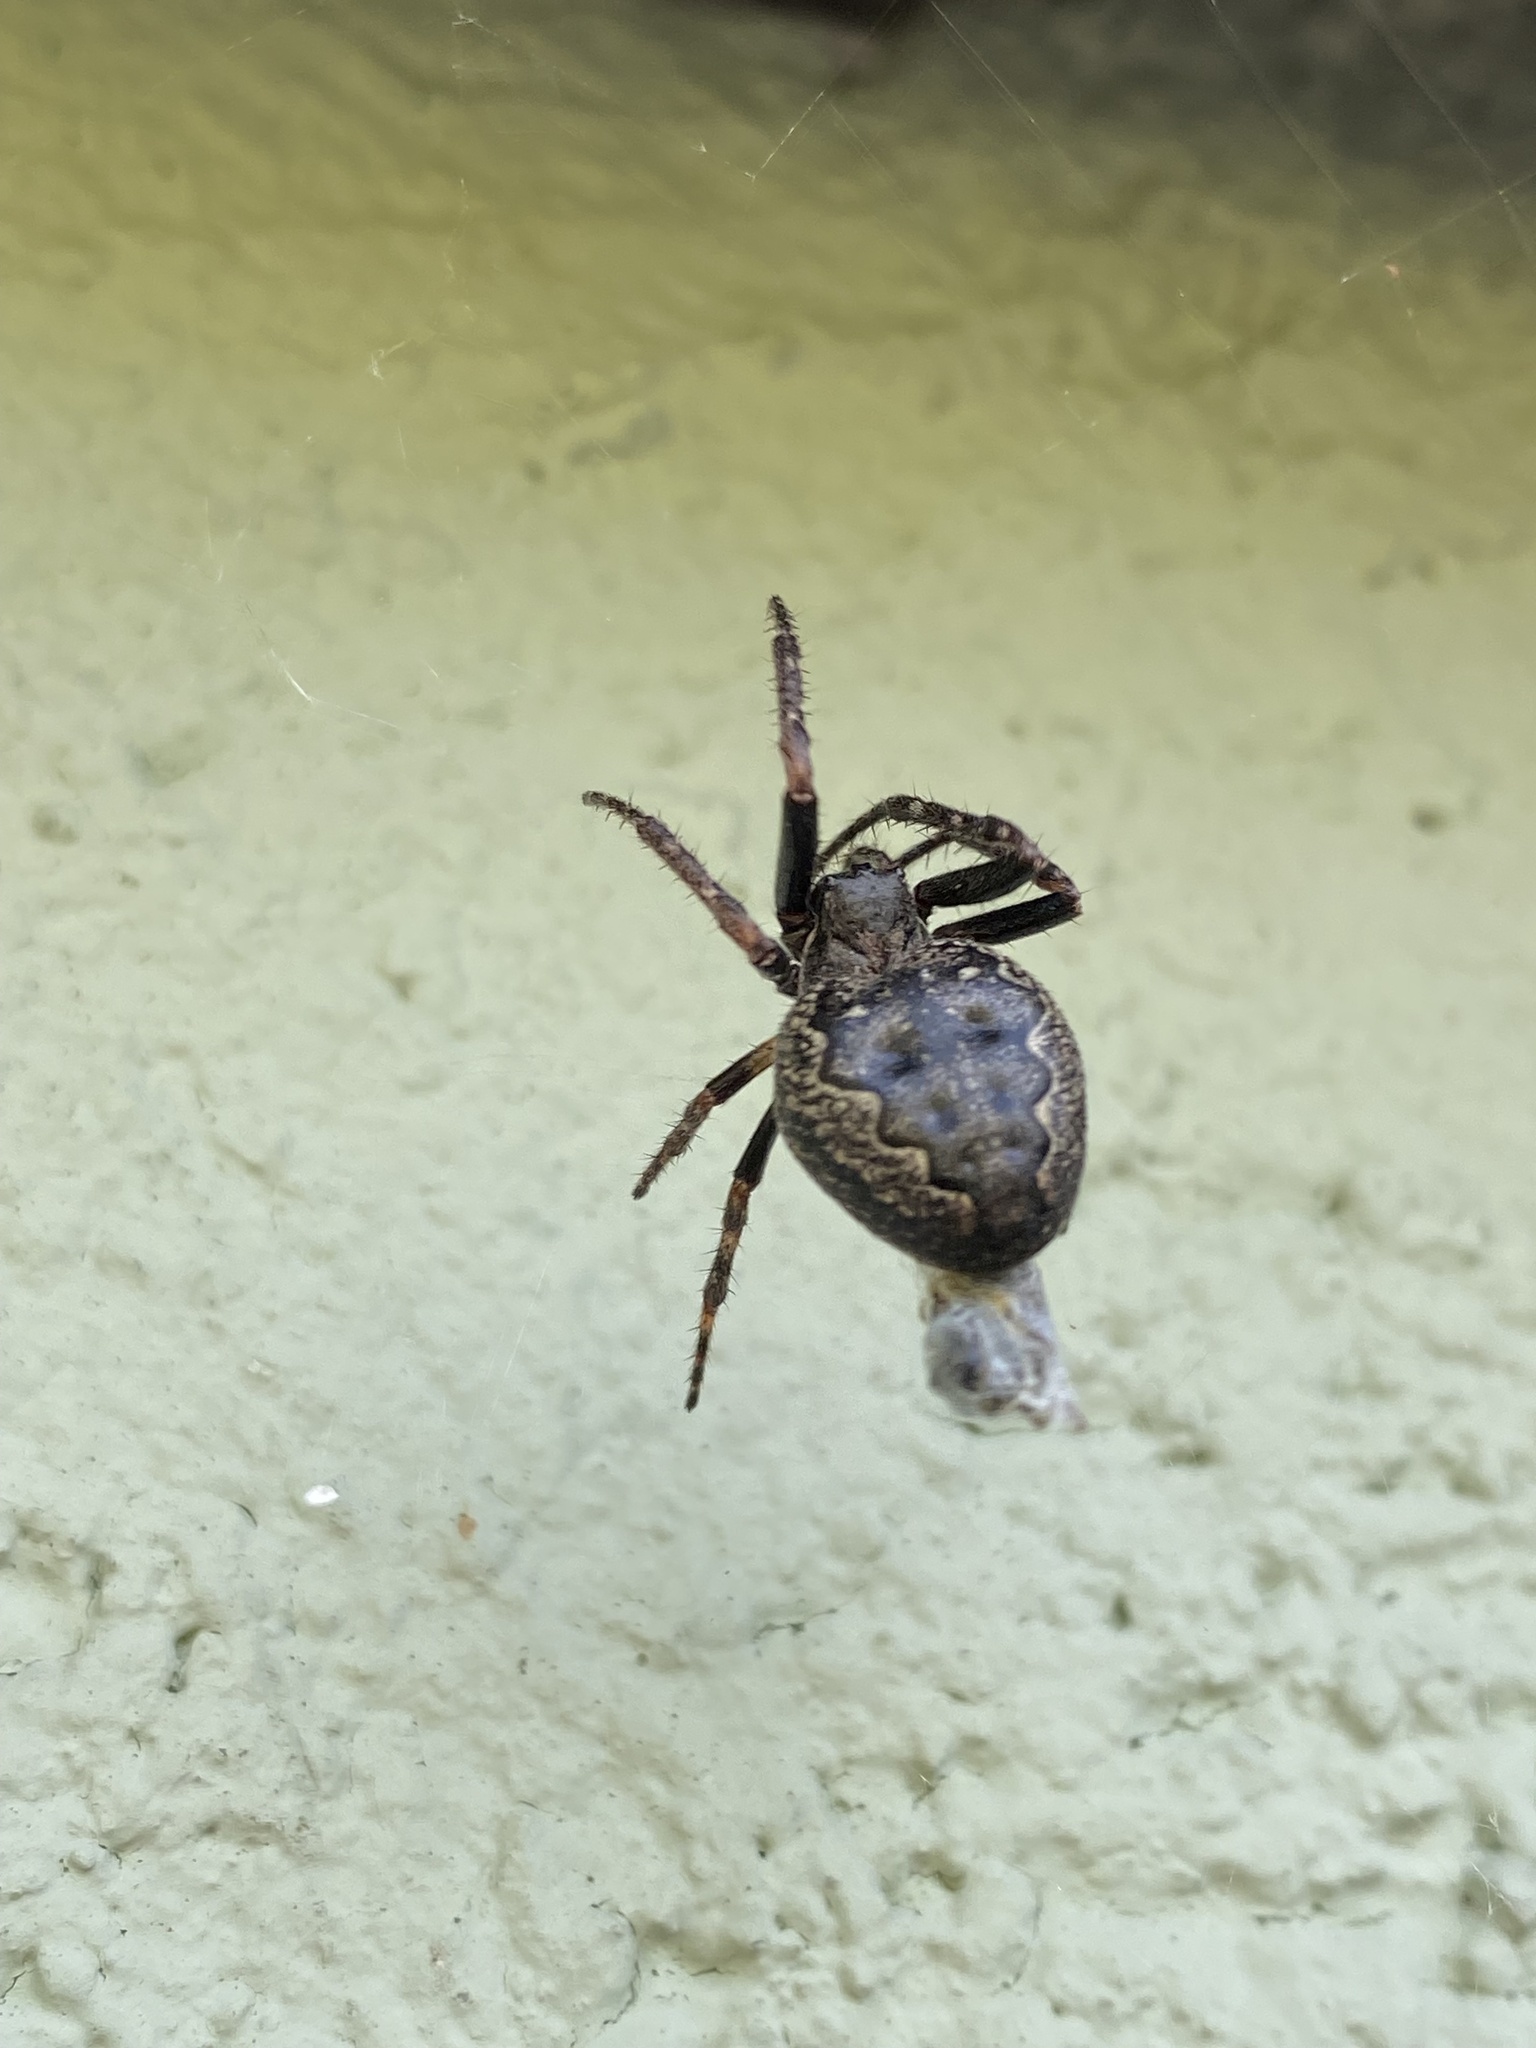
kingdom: Animalia
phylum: Arthropoda
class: Arachnida
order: Araneae
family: Araneidae
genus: Nuctenea
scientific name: Nuctenea umbratica
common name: Toad spider
